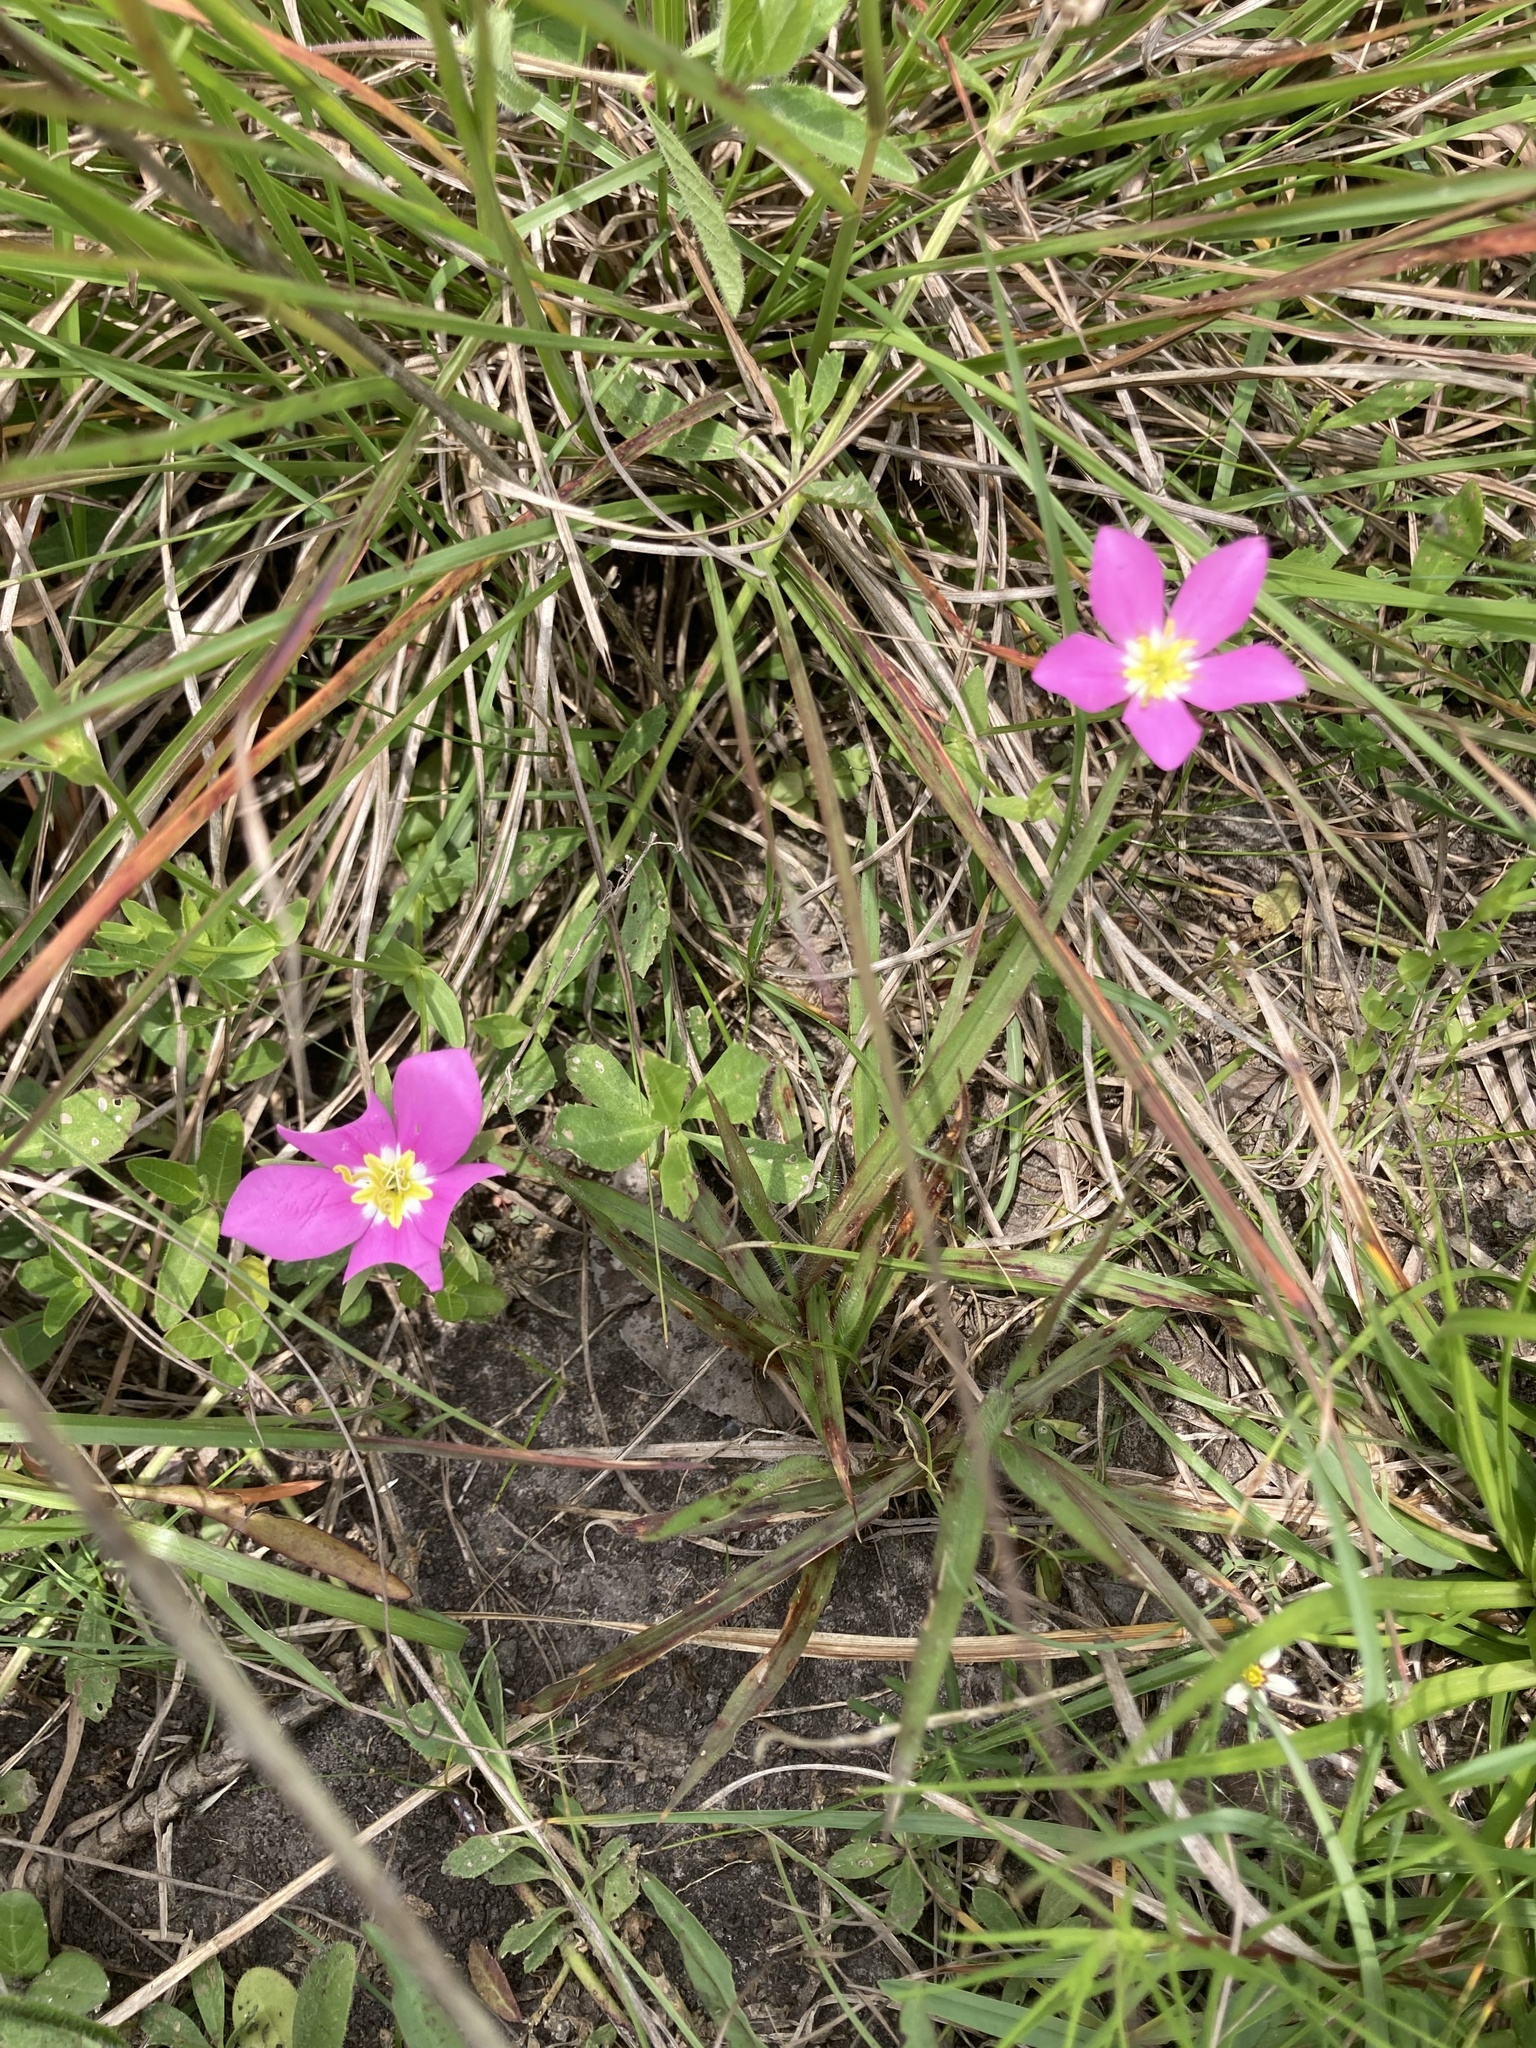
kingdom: Plantae
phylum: Tracheophyta
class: Magnoliopsida
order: Gentianales
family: Gentianaceae
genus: Sabatia
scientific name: Sabatia campestris
